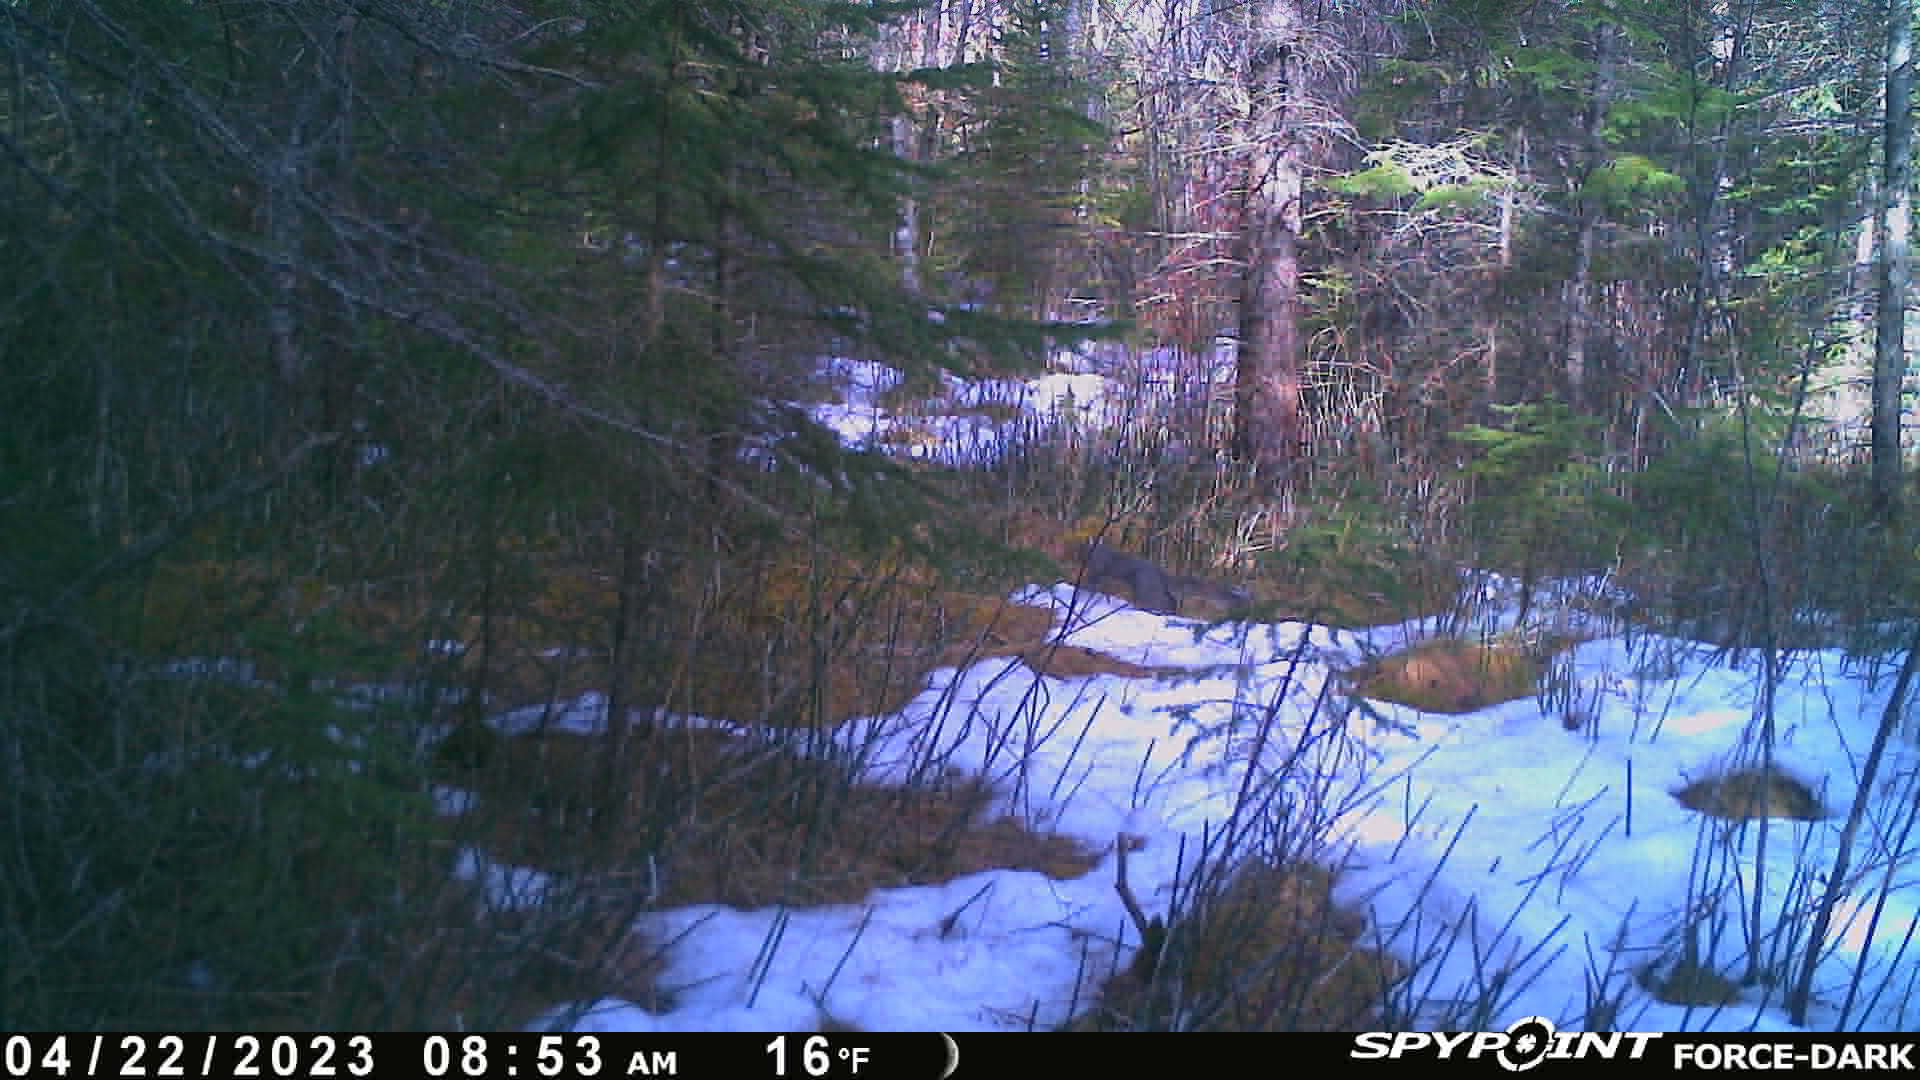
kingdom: Animalia
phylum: Chordata
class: Mammalia
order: Rodentia
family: Sciuridae
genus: Sciurus
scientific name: Sciurus carolinensis
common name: Eastern gray squirrel
